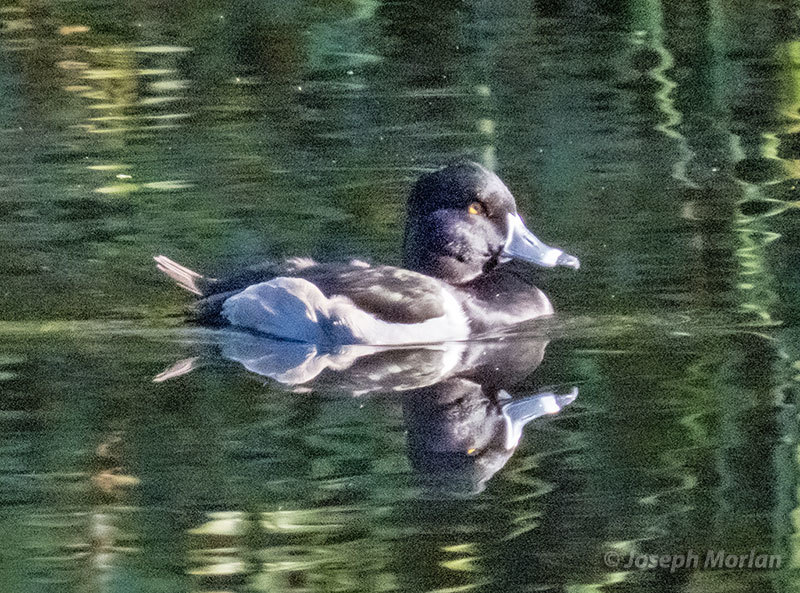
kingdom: Animalia
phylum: Chordata
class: Aves
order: Anseriformes
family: Anatidae
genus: Aythya
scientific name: Aythya collaris
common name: Ring-necked duck
